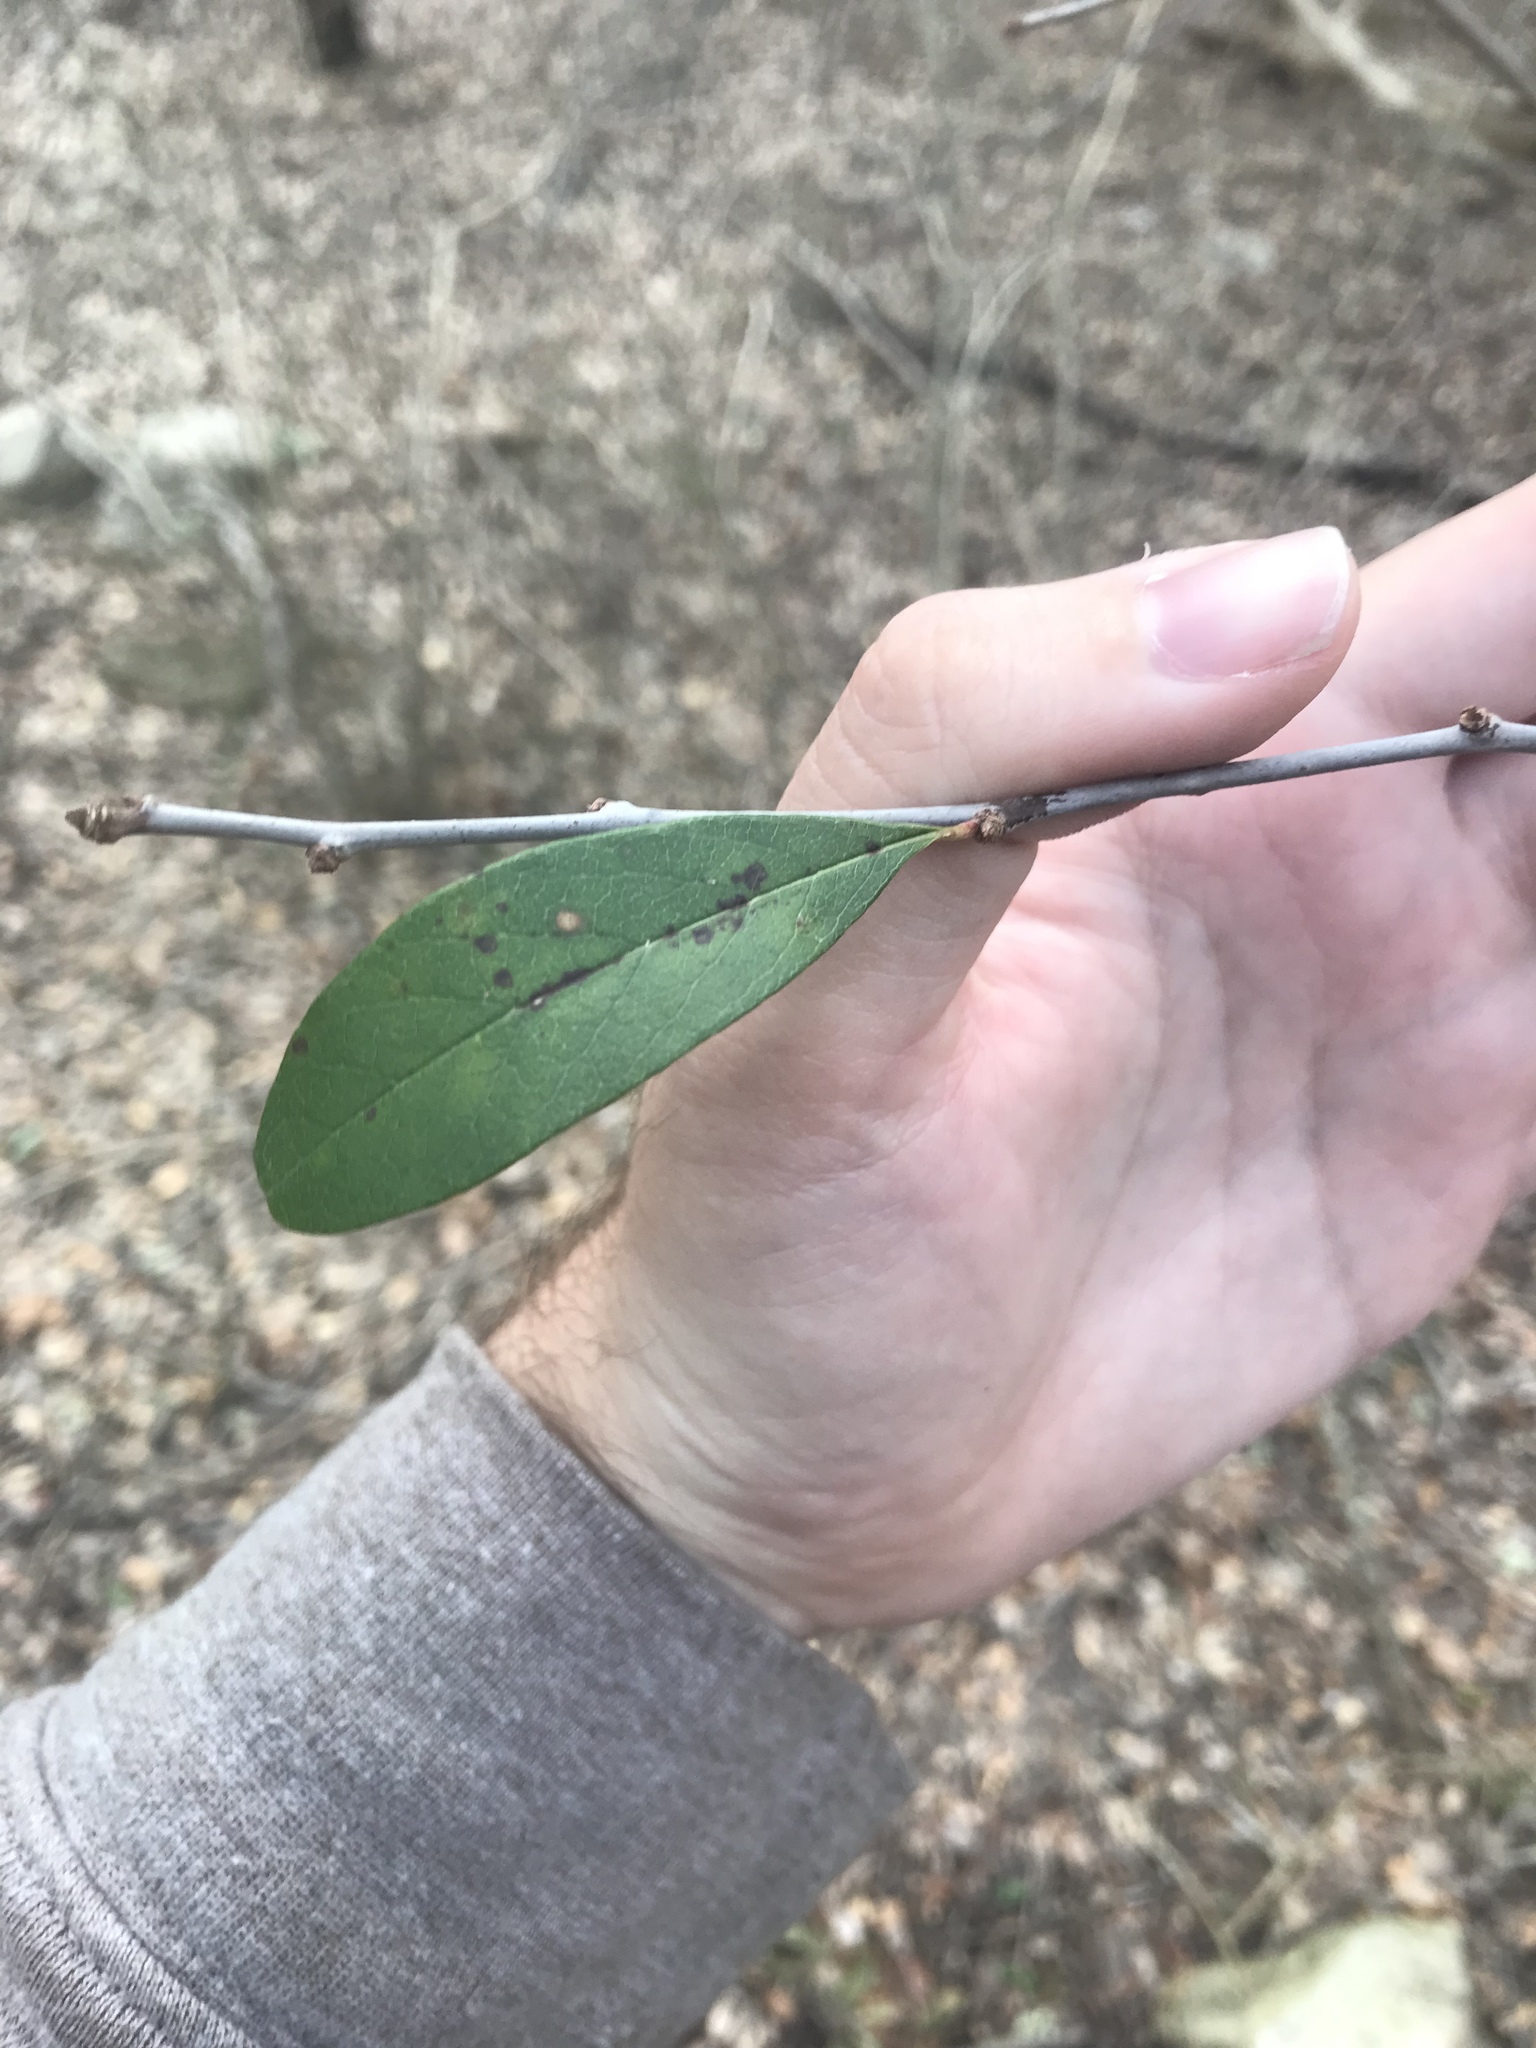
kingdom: Plantae
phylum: Tracheophyta
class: Magnoliopsida
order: Ericales
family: Sapotaceae
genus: Sideroxylon
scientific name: Sideroxylon lanuginosum
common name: Chittamwood
